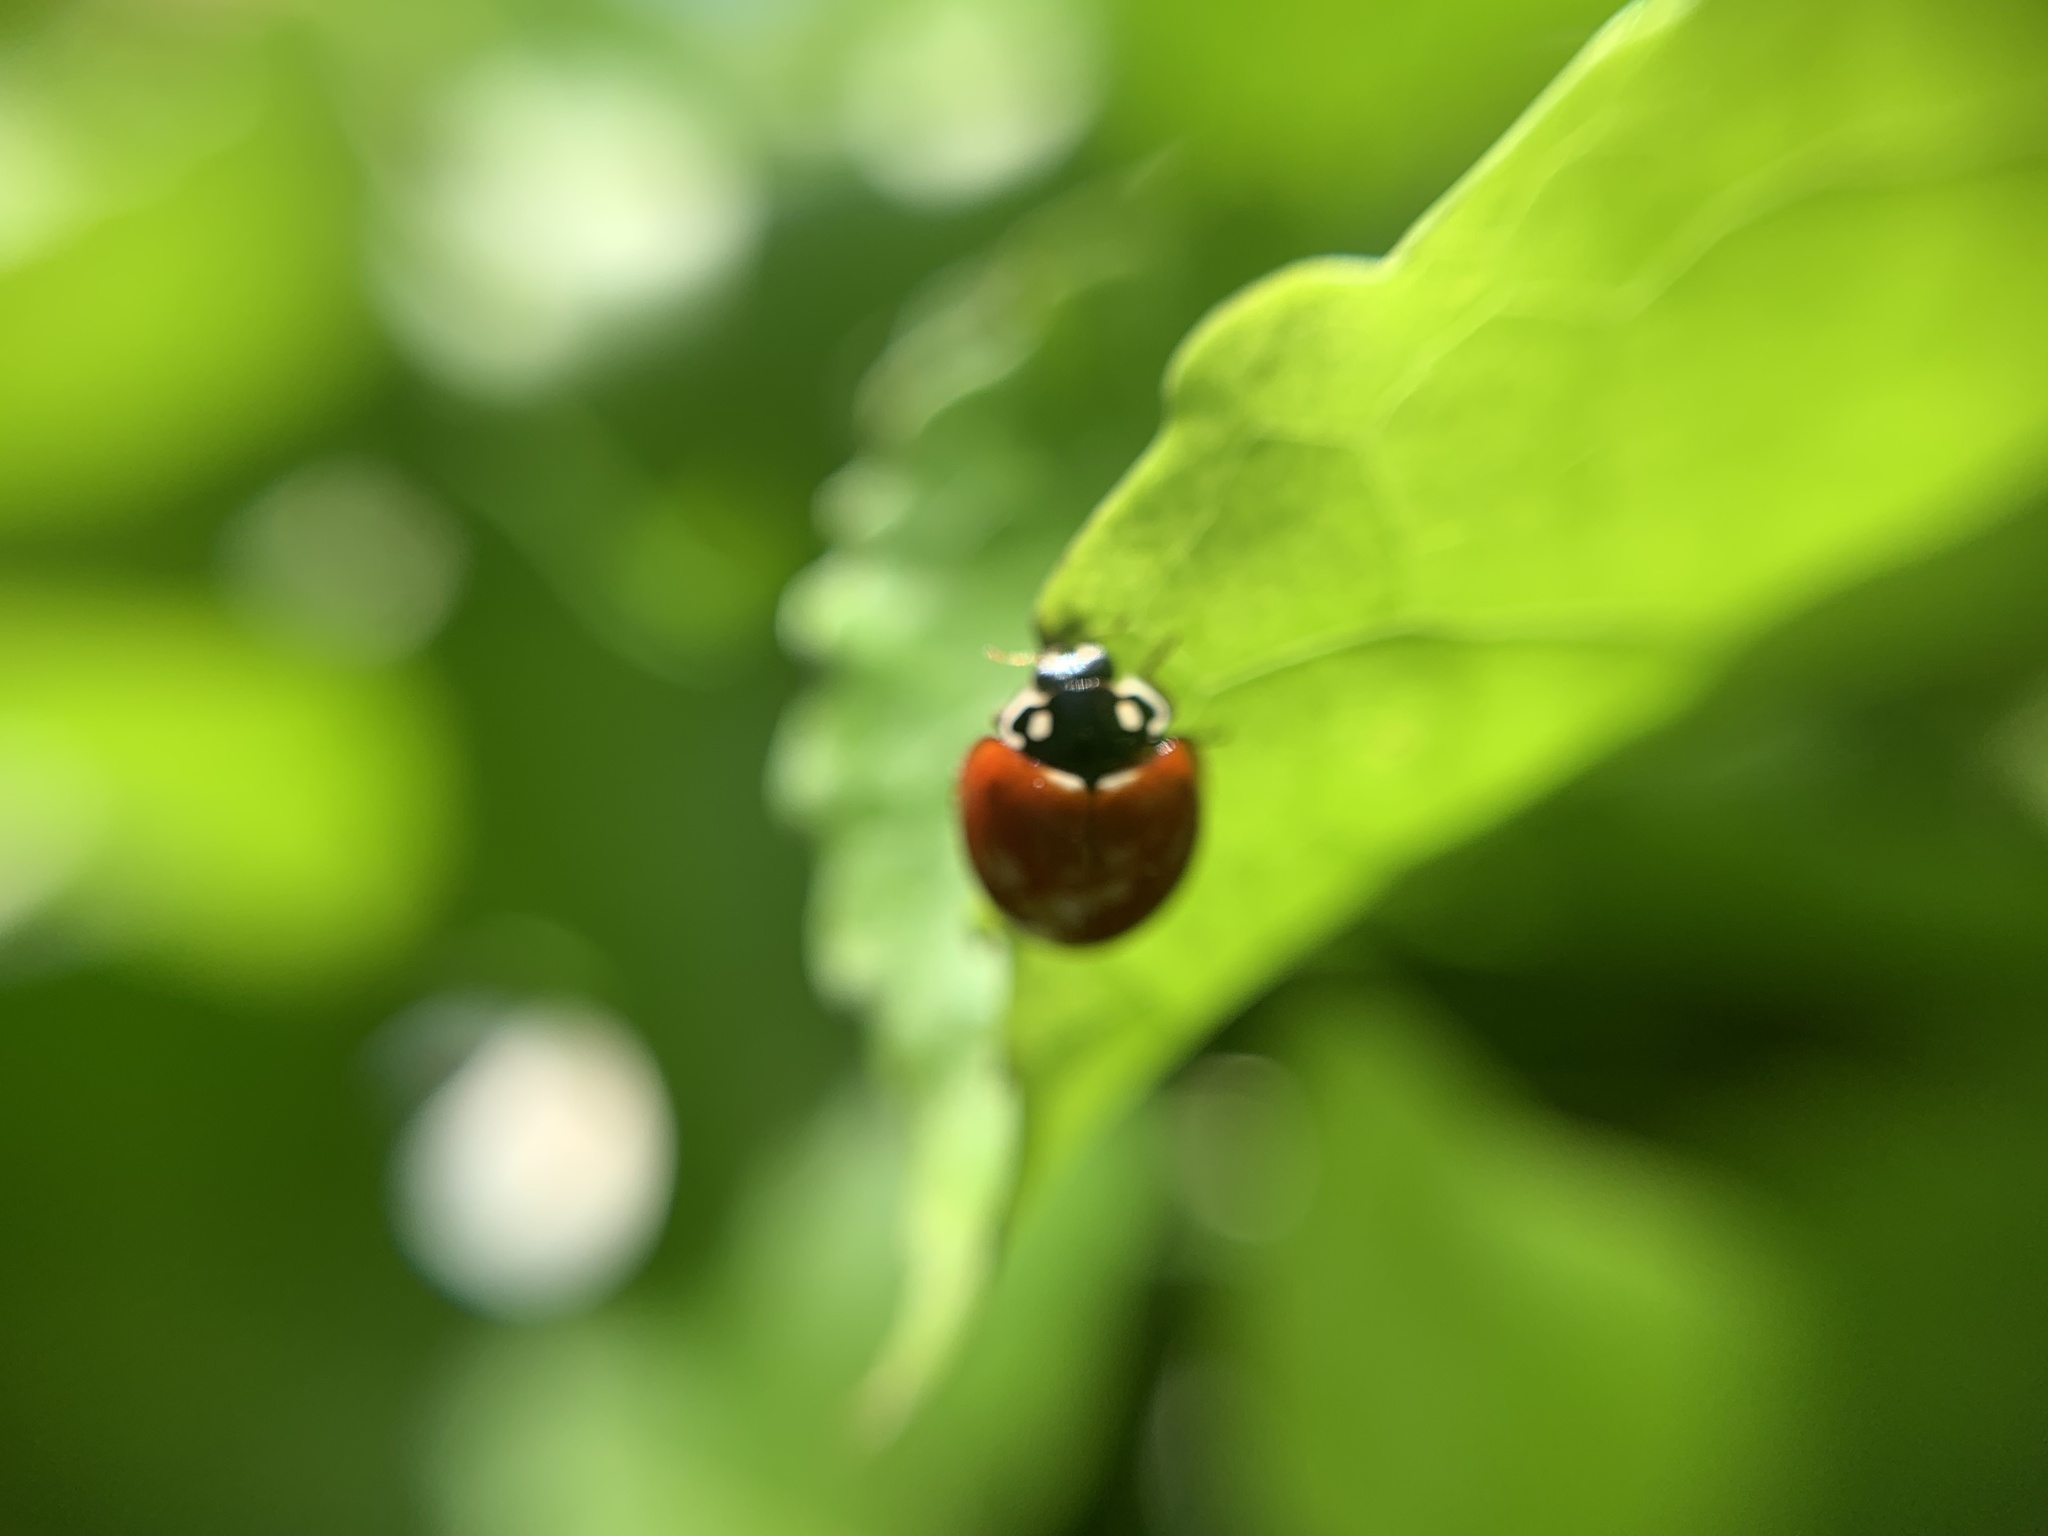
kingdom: Animalia
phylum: Arthropoda
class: Insecta
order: Coleoptera
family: Coccinellidae
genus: Cycloneda
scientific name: Cycloneda sanguinea
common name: Ladybird beetle
